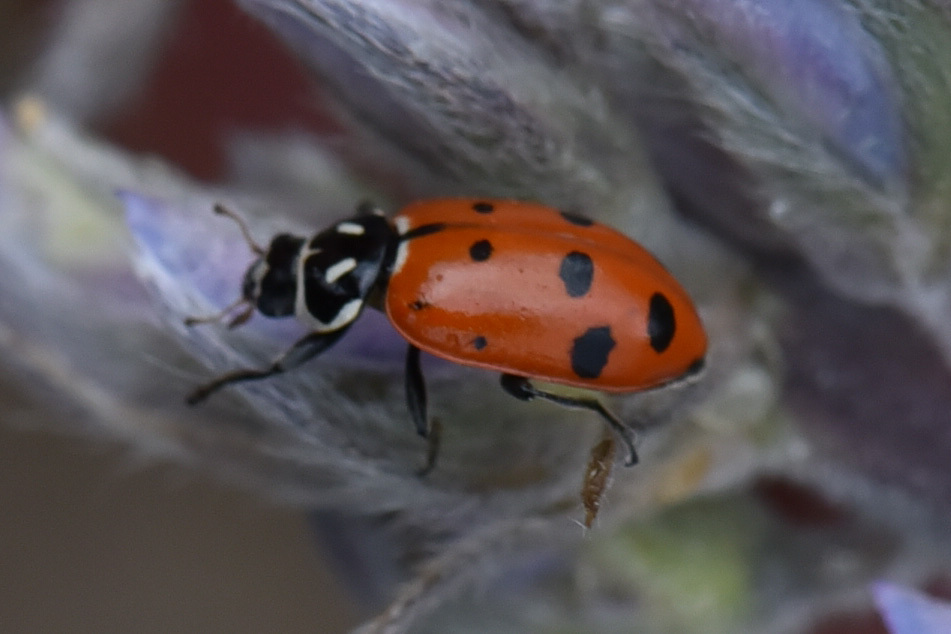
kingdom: Animalia
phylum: Arthropoda
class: Insecta
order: Coleoptera
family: Coccinellidae
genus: Hippodamia
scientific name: Hippodamia convergens
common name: Convergent lady beetle
